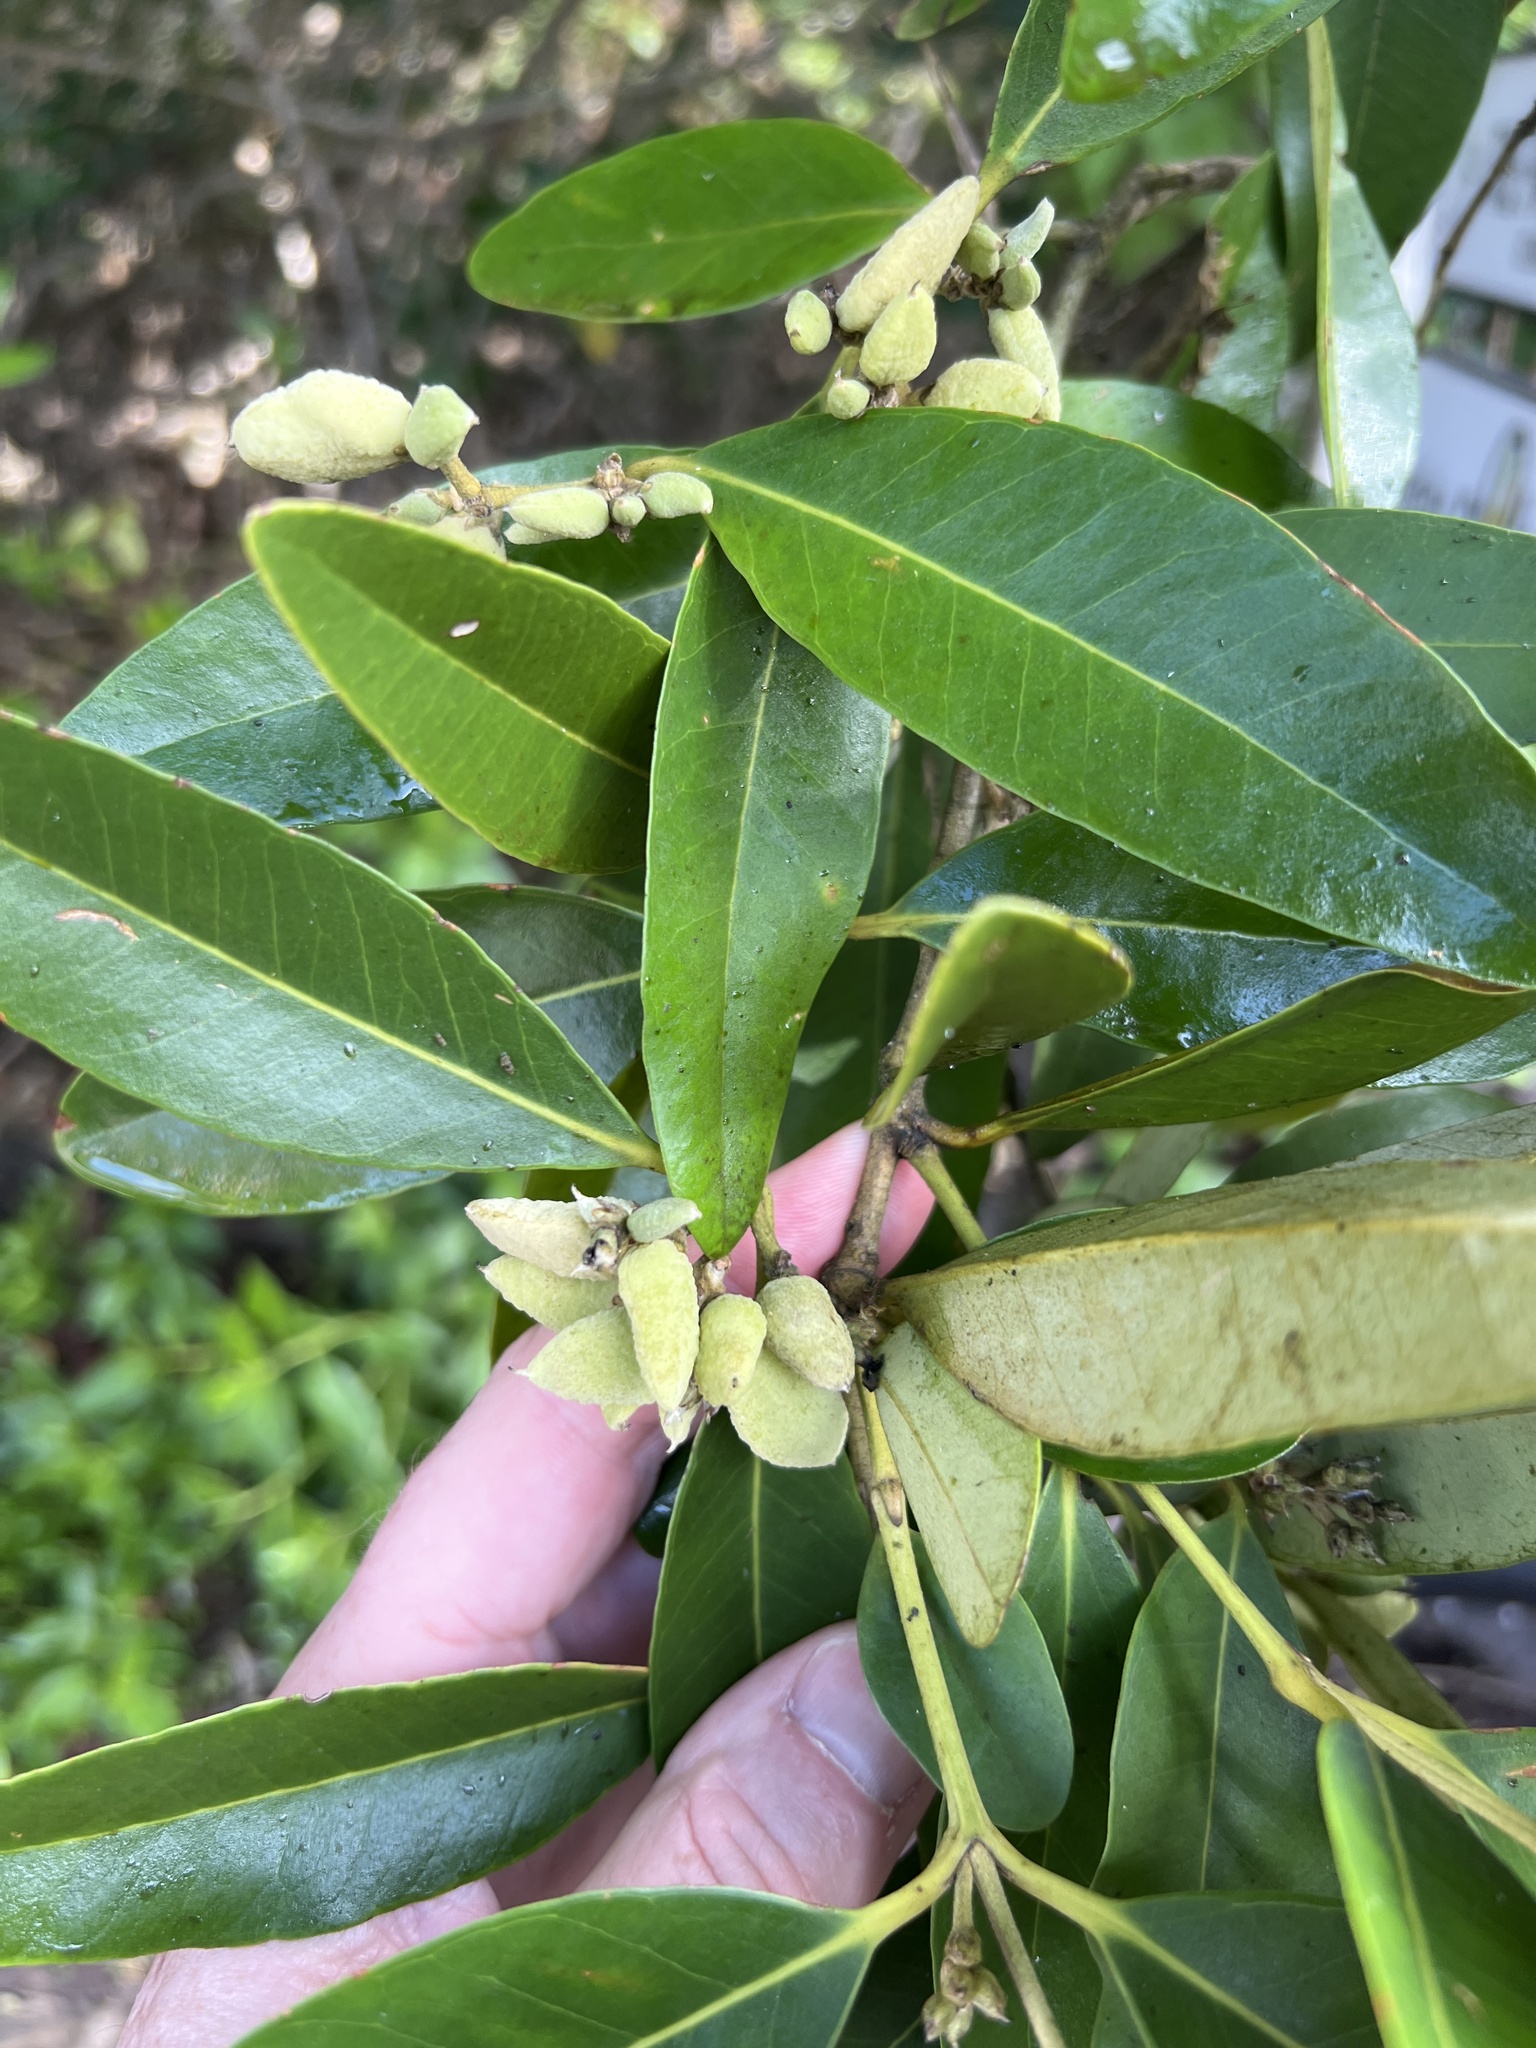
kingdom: Plantae
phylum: Tracheophyta
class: Magnoliopsida
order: Lamiales
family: Acanthaceae
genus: Avicennia
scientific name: Avicennia germinans
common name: Black mangrove
